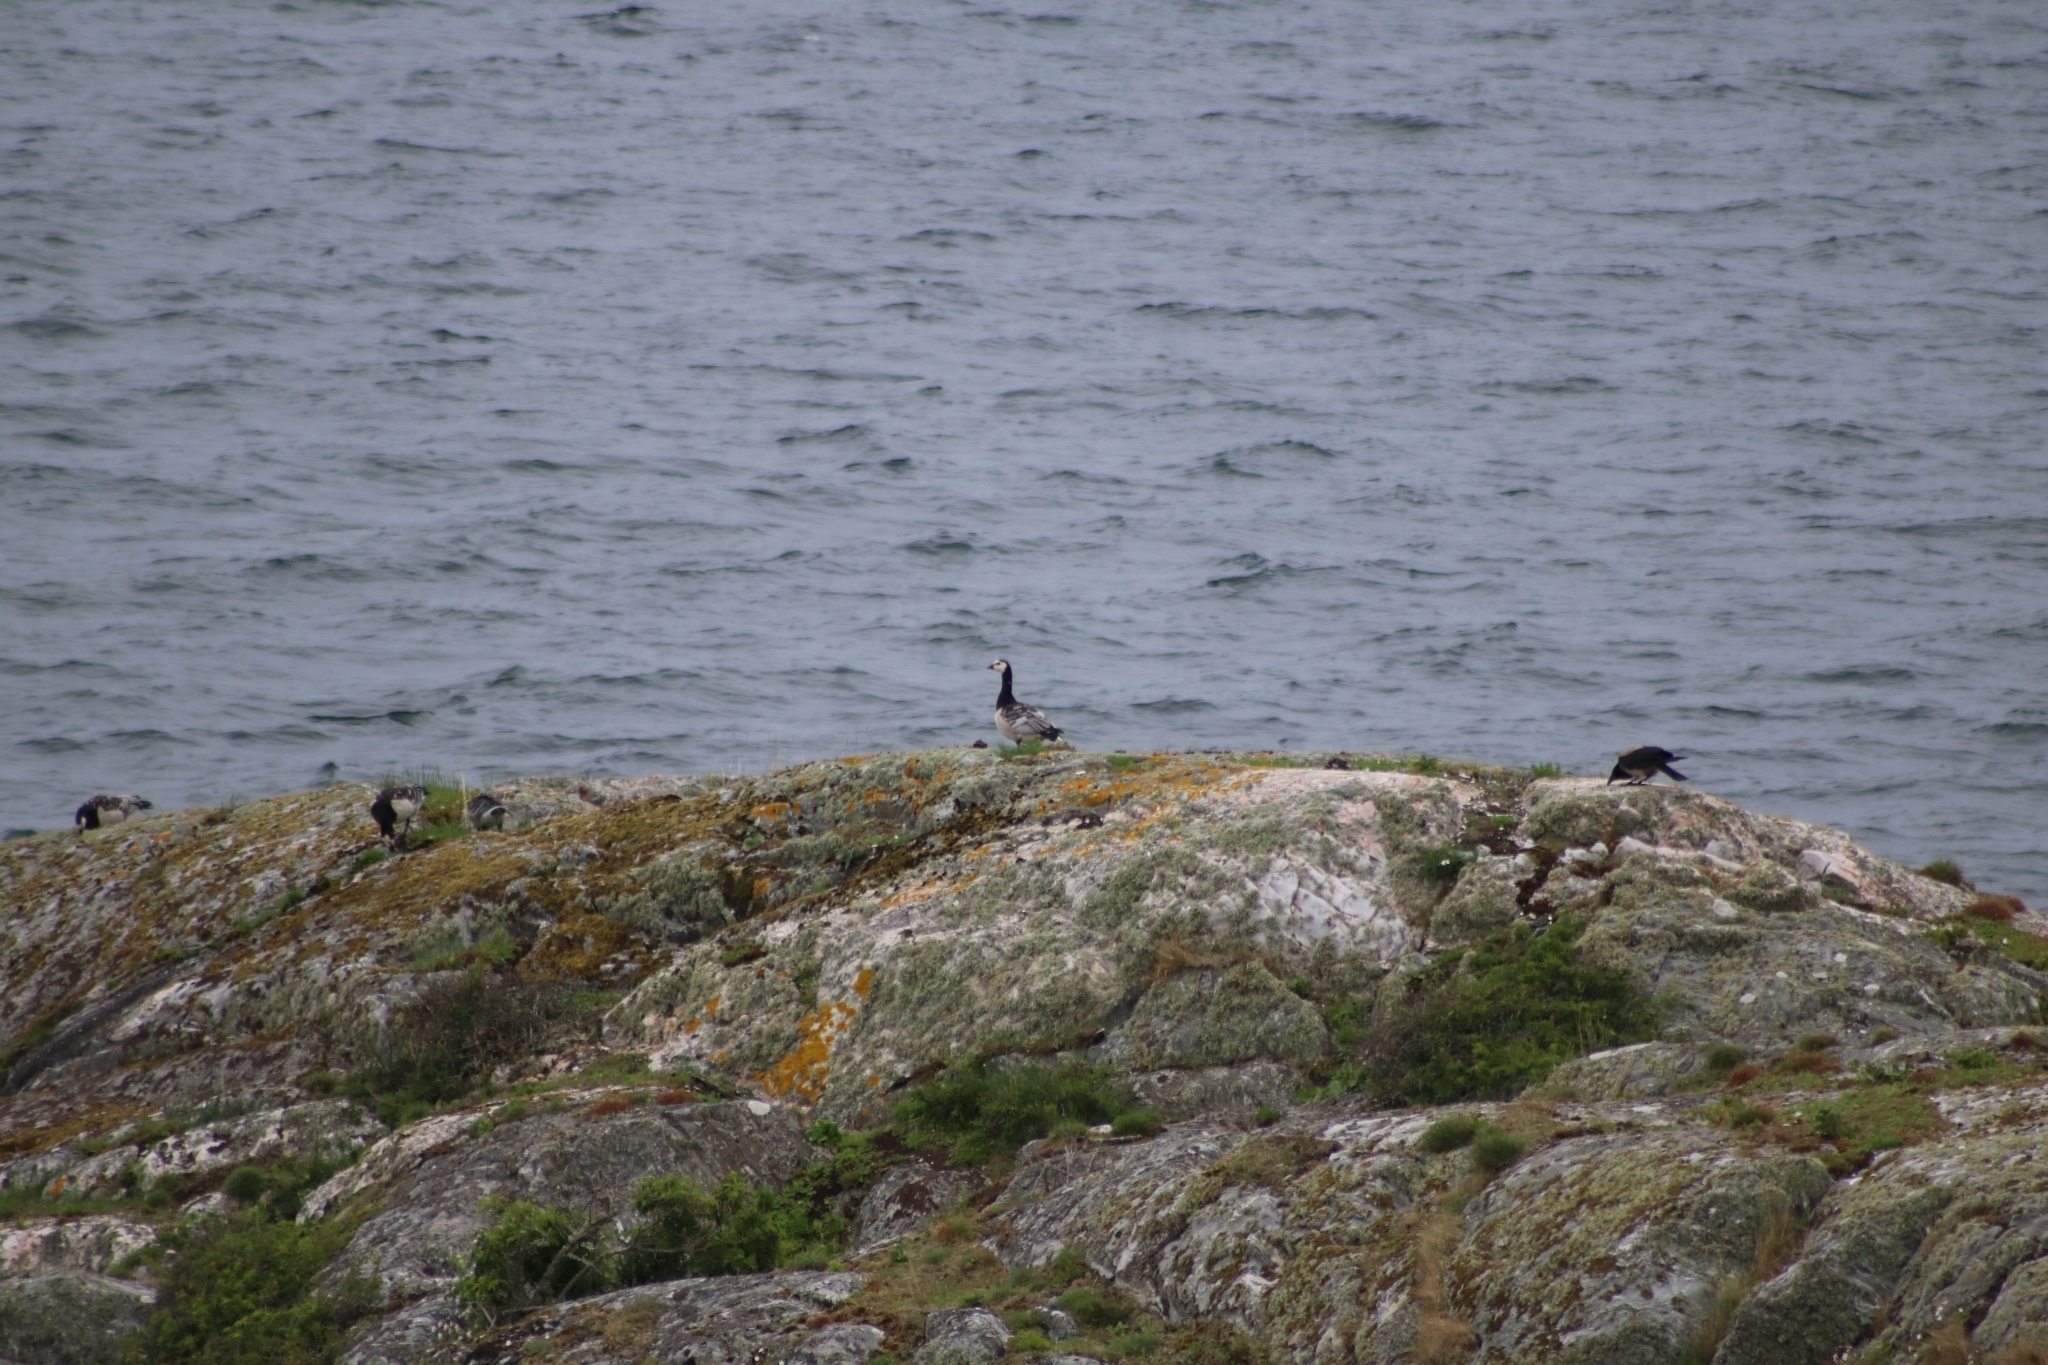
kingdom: Animalia
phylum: Chordata
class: Aves
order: Anseriformes
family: Anatidae
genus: Branta
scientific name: Branta leucopsis
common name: Barnacle goose
